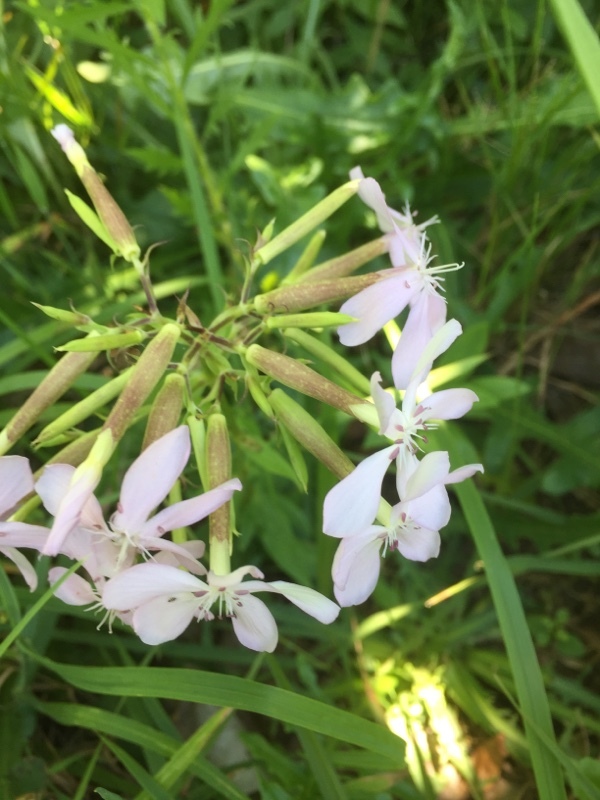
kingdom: Plantae
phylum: Tracheophyta
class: Magnoliopsida
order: Caryophyllales
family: Caryophyllaceae
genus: Saponaria
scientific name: Saponaria officinalis
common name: Soapwort
